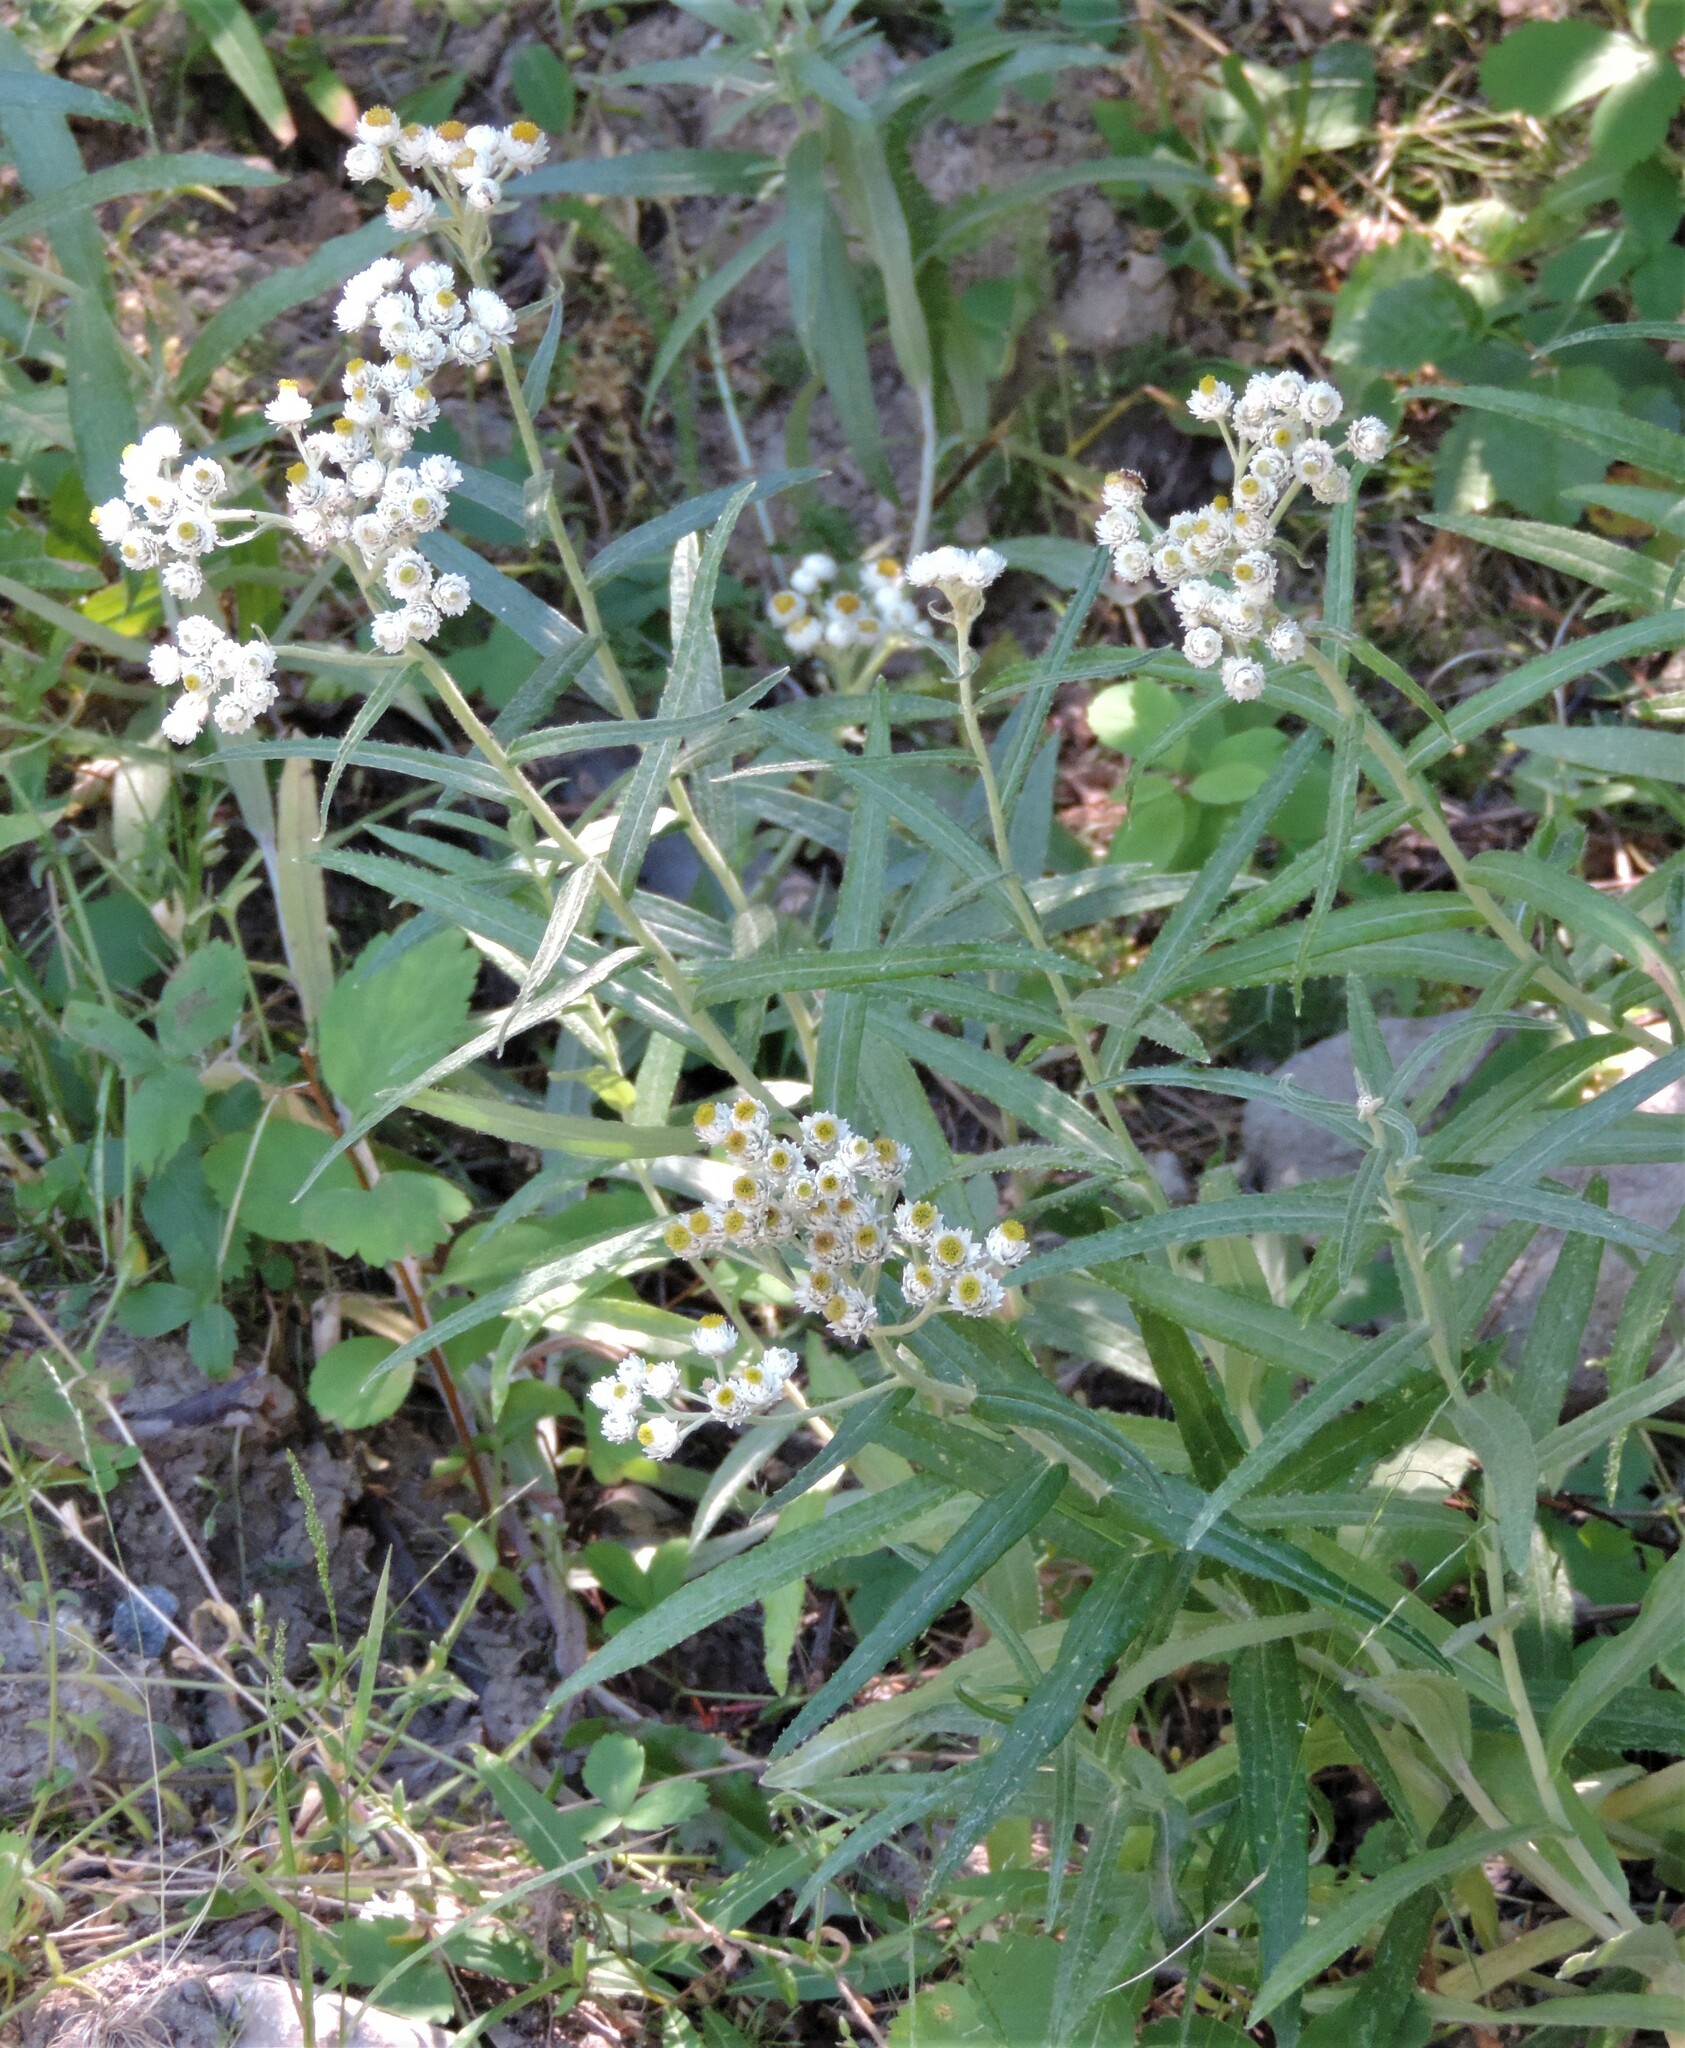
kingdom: Plantae
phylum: Tracheophyta
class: Magnoliopsida
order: Asterales
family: Asteraceae
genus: Anaphalis
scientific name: Anaphalis margaritacea
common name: Pearly everlasting
